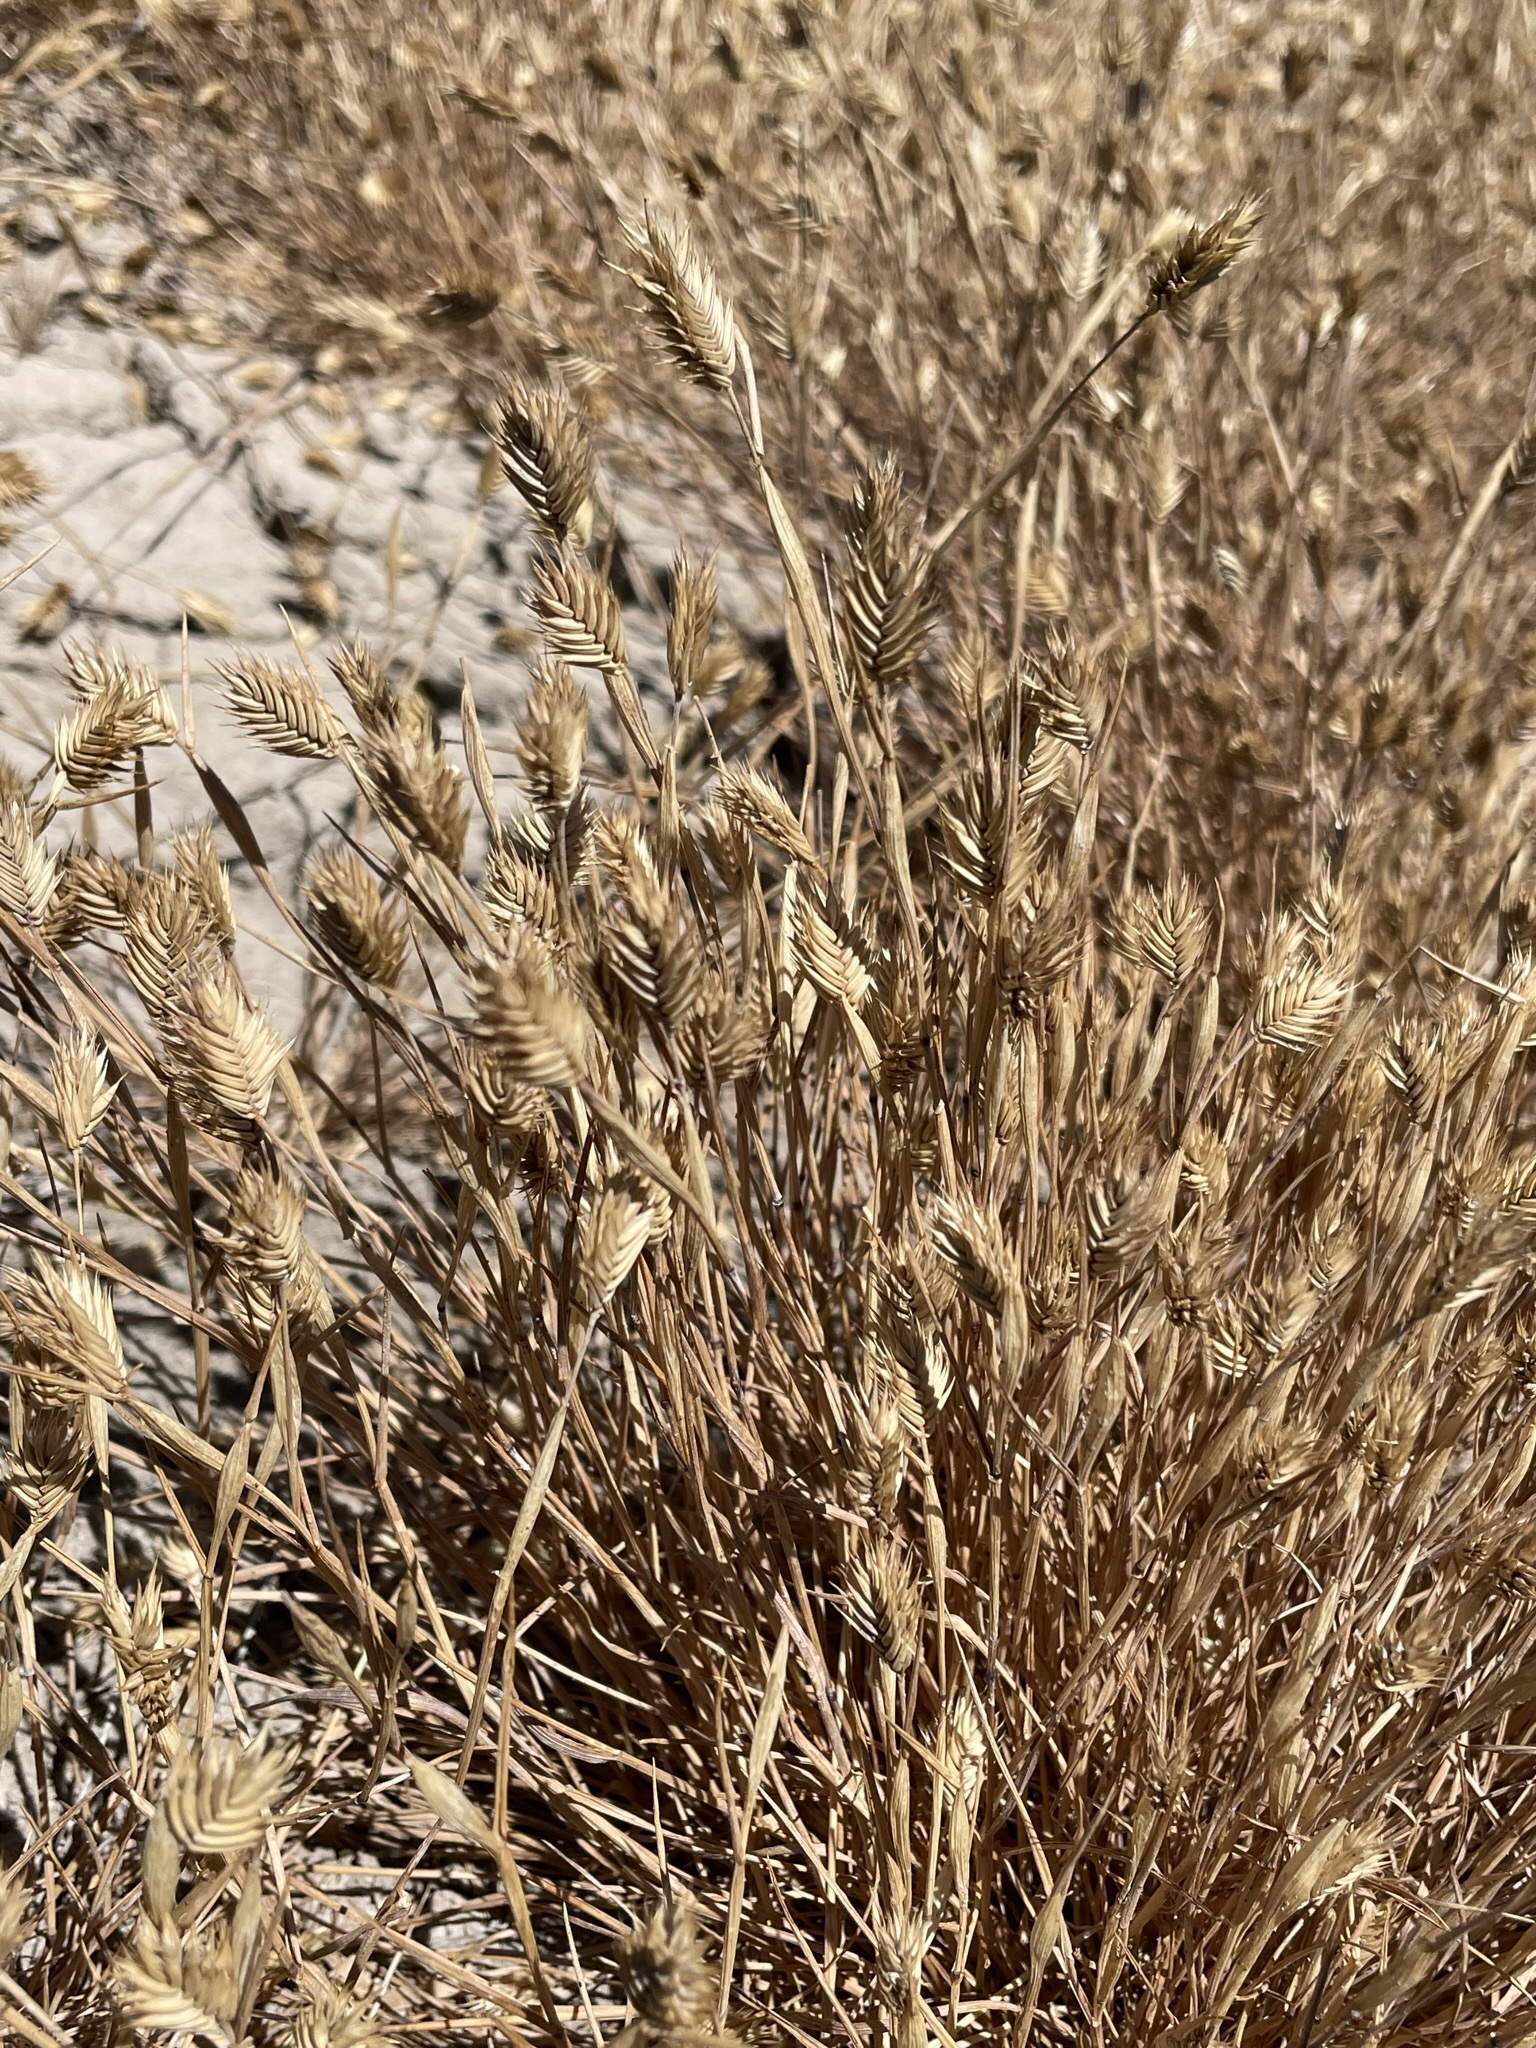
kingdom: Plantae
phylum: Tracheophyta
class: Liliopsida
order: Poales
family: Poaceae
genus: Eremopyrum
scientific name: Eremopyrum triticeum
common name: Annual wheatgrass
